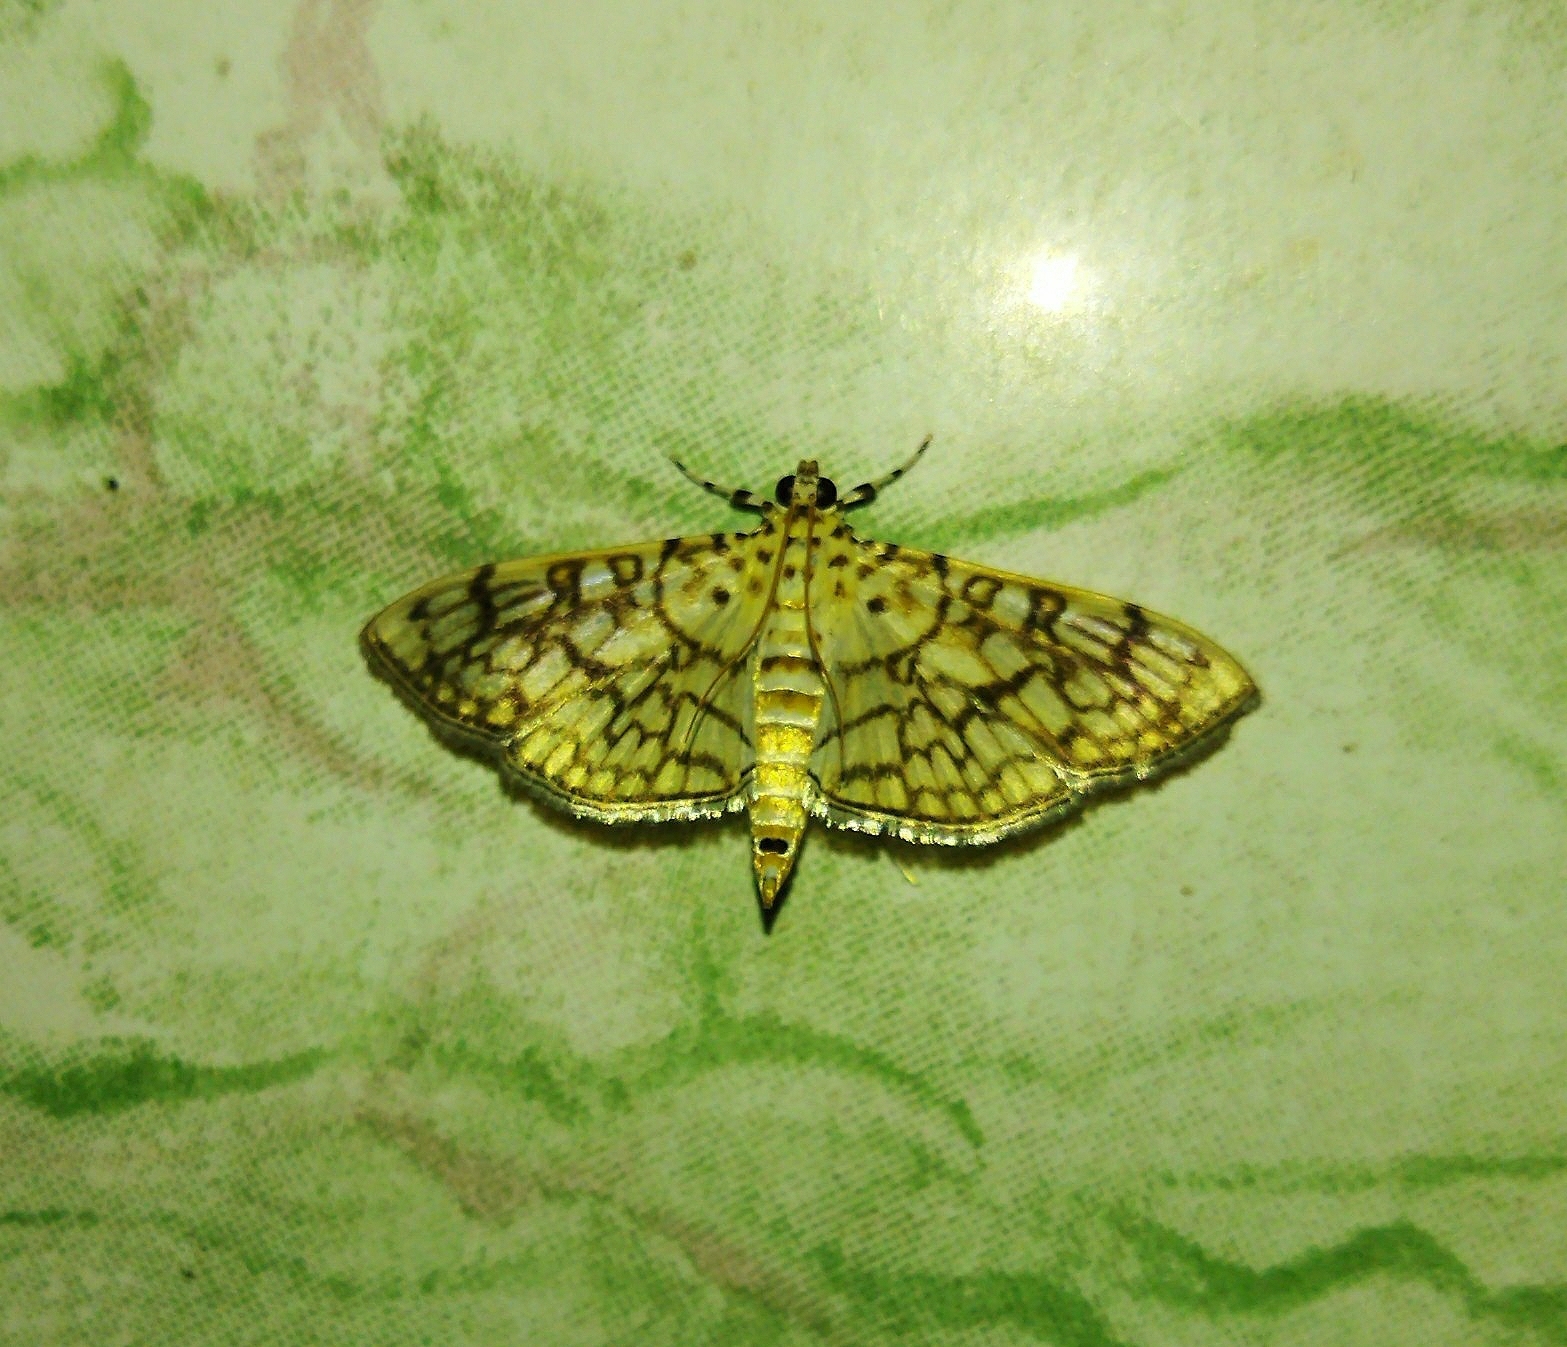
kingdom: Animalia
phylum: Arthropoda
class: Insecta
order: Lepidoptera
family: Crambidae
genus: Haritalodes
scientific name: Haritalodes derogata
